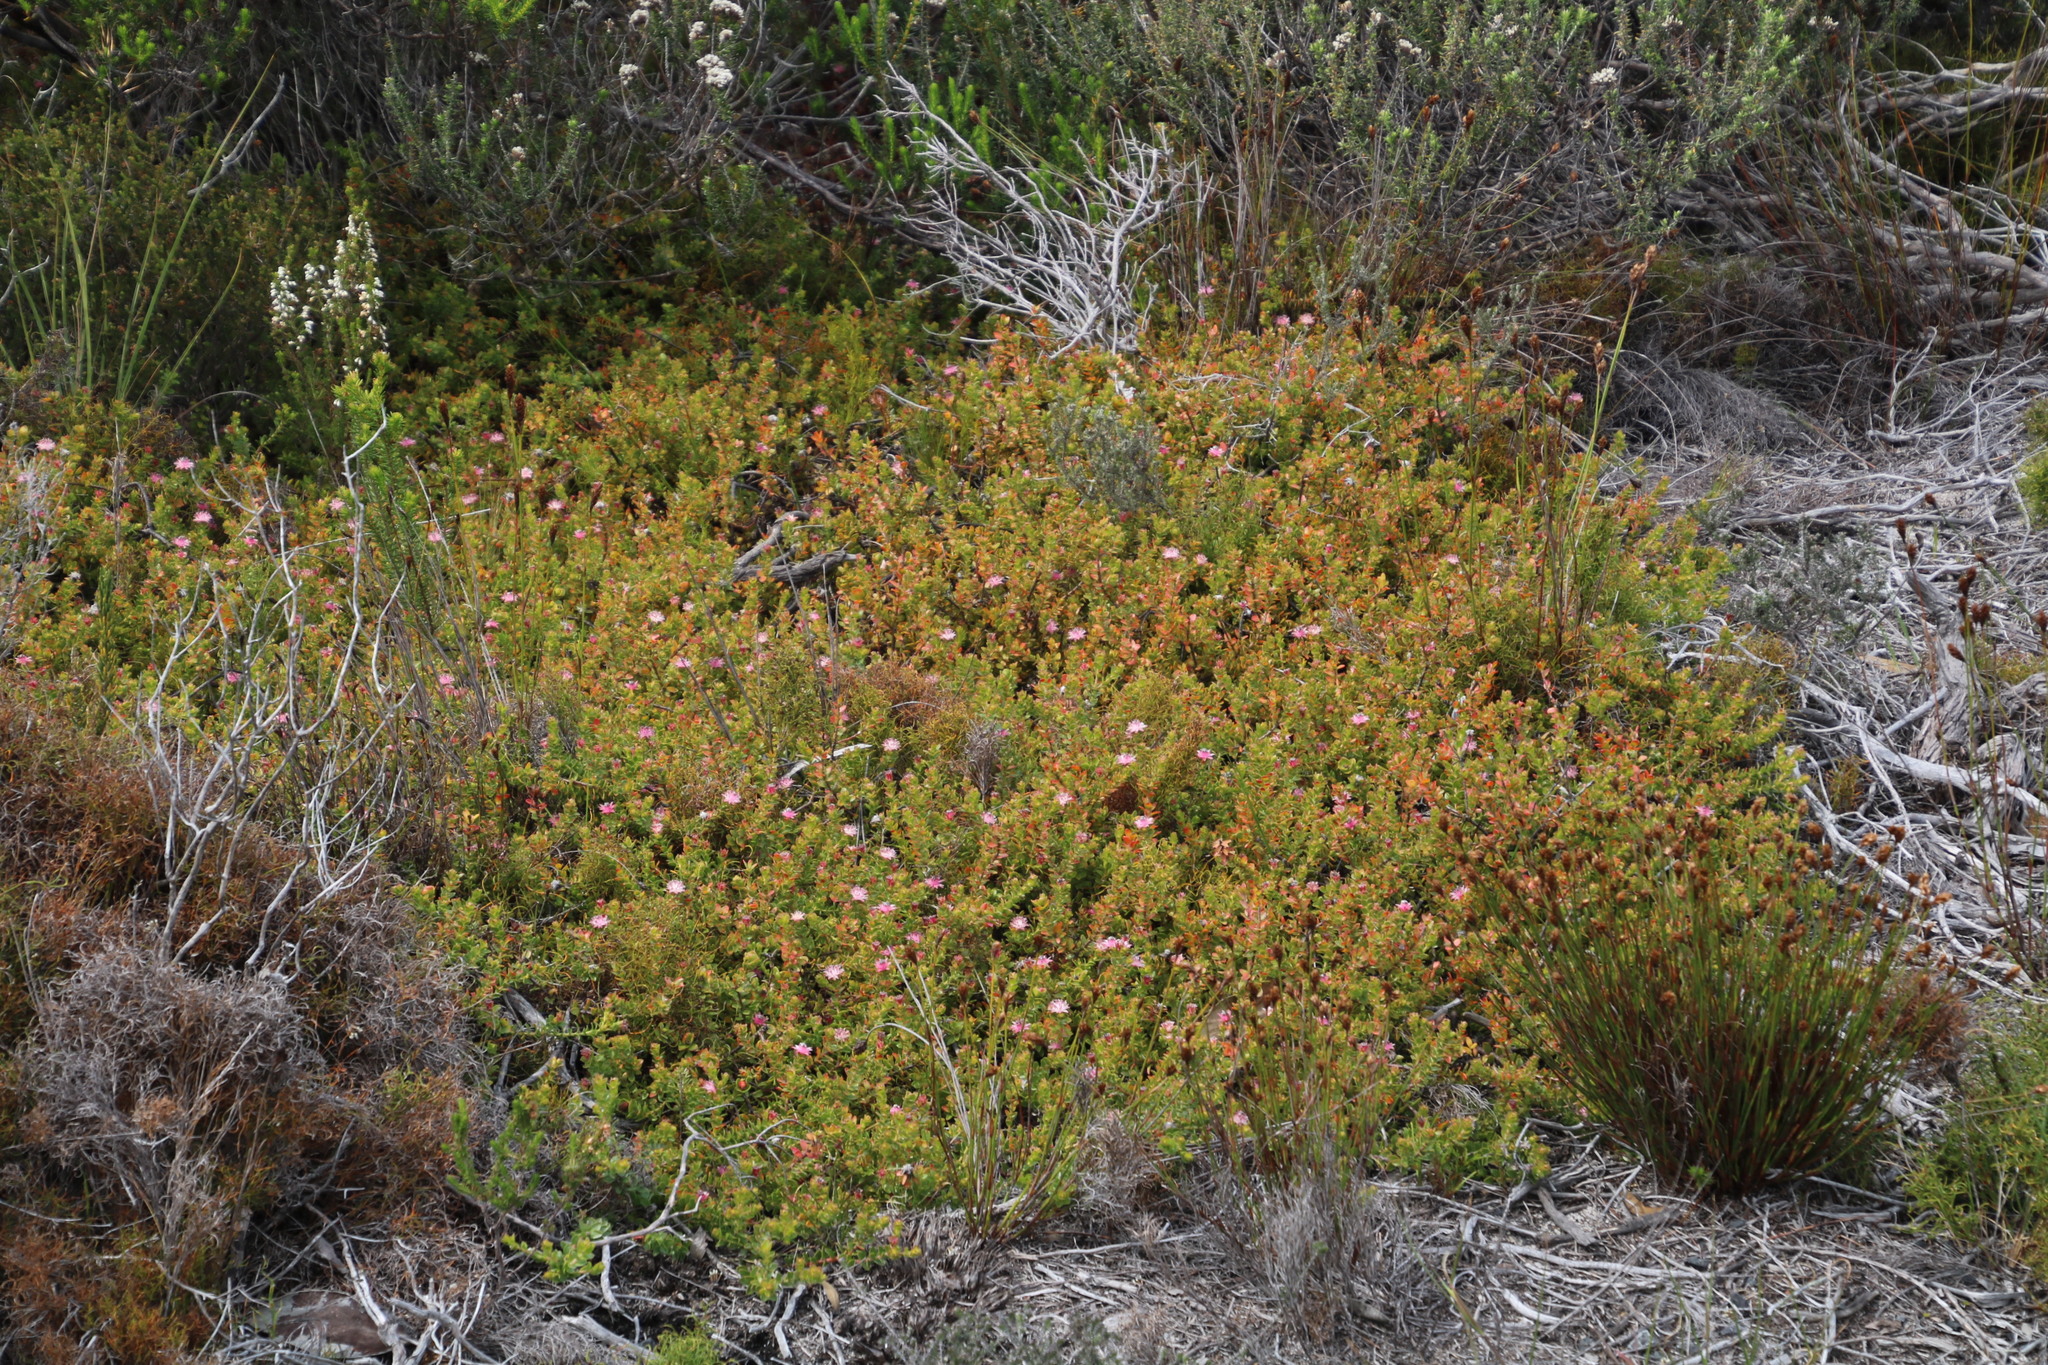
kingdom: Plantae
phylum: Tracheophyta
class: Magnoliopsida
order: Proteales
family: Proteaceae
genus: Diastella
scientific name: Diastella divaricata
